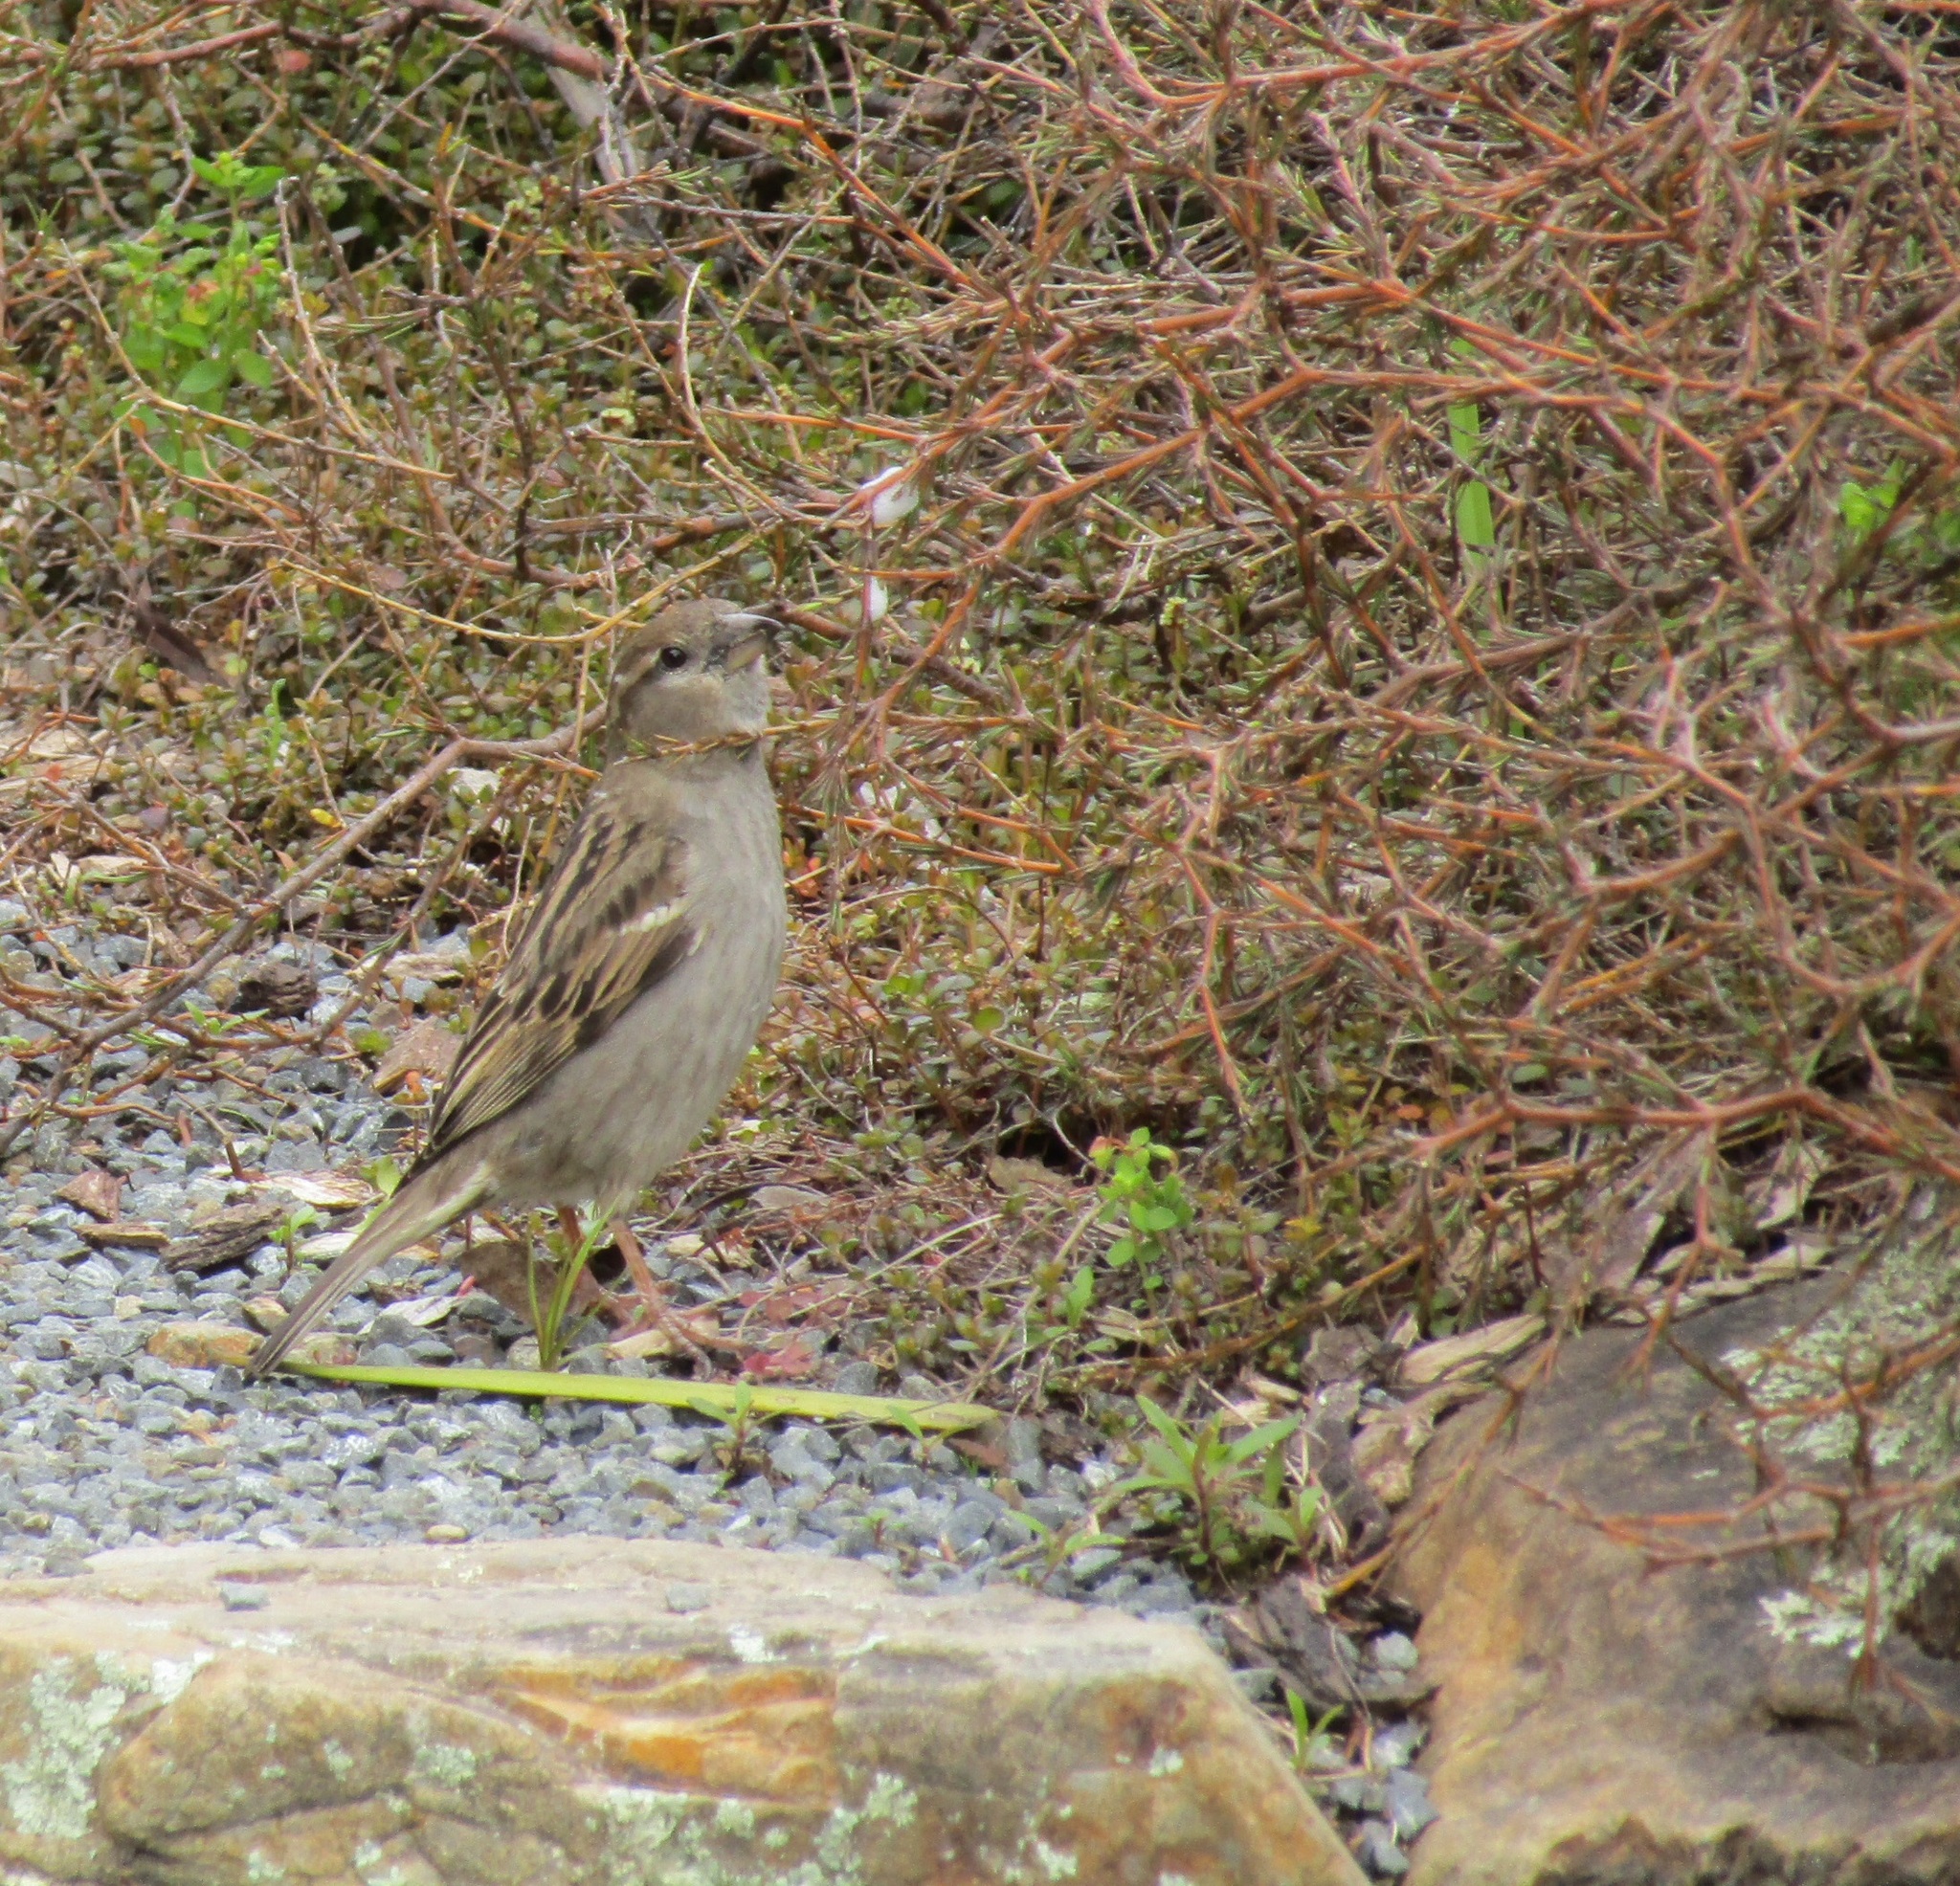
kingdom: Animalia
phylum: Chordata
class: Aves
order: Passeriformes
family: Passeridae
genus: Passer
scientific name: Passer domesticus
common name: House sparrow
